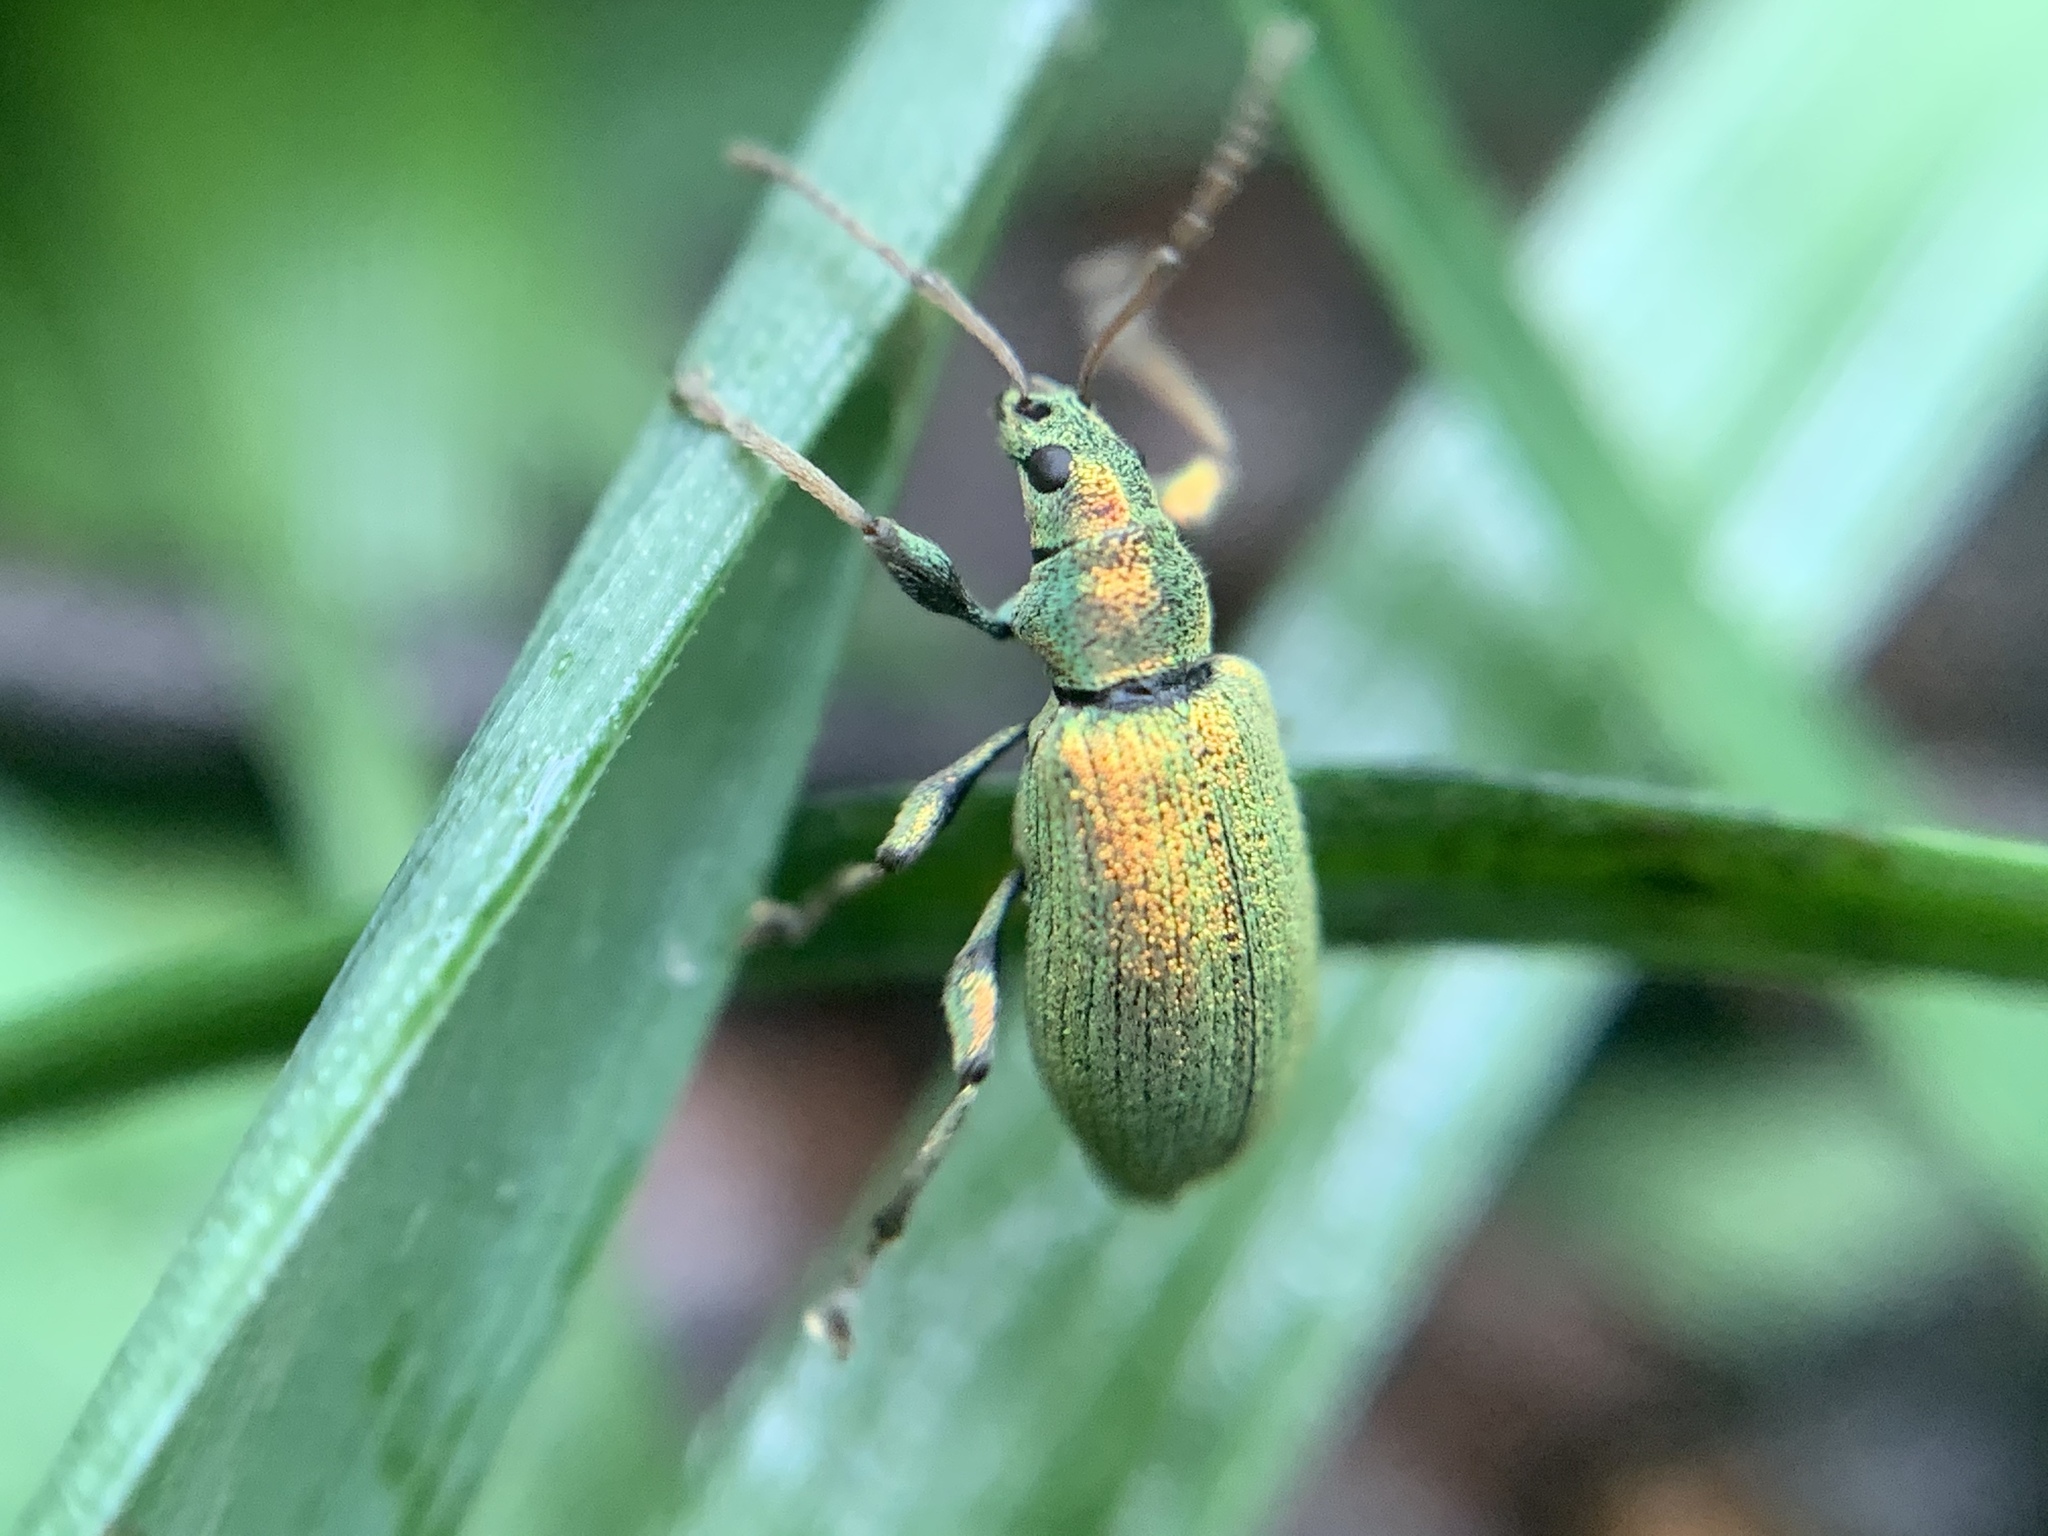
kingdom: Animalia
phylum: Arthropoda
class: Insecta
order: Coleoptera
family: Curculionidae
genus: Phyllobius
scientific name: Phyllobius argentatus
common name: Silver-green leaf weevil
